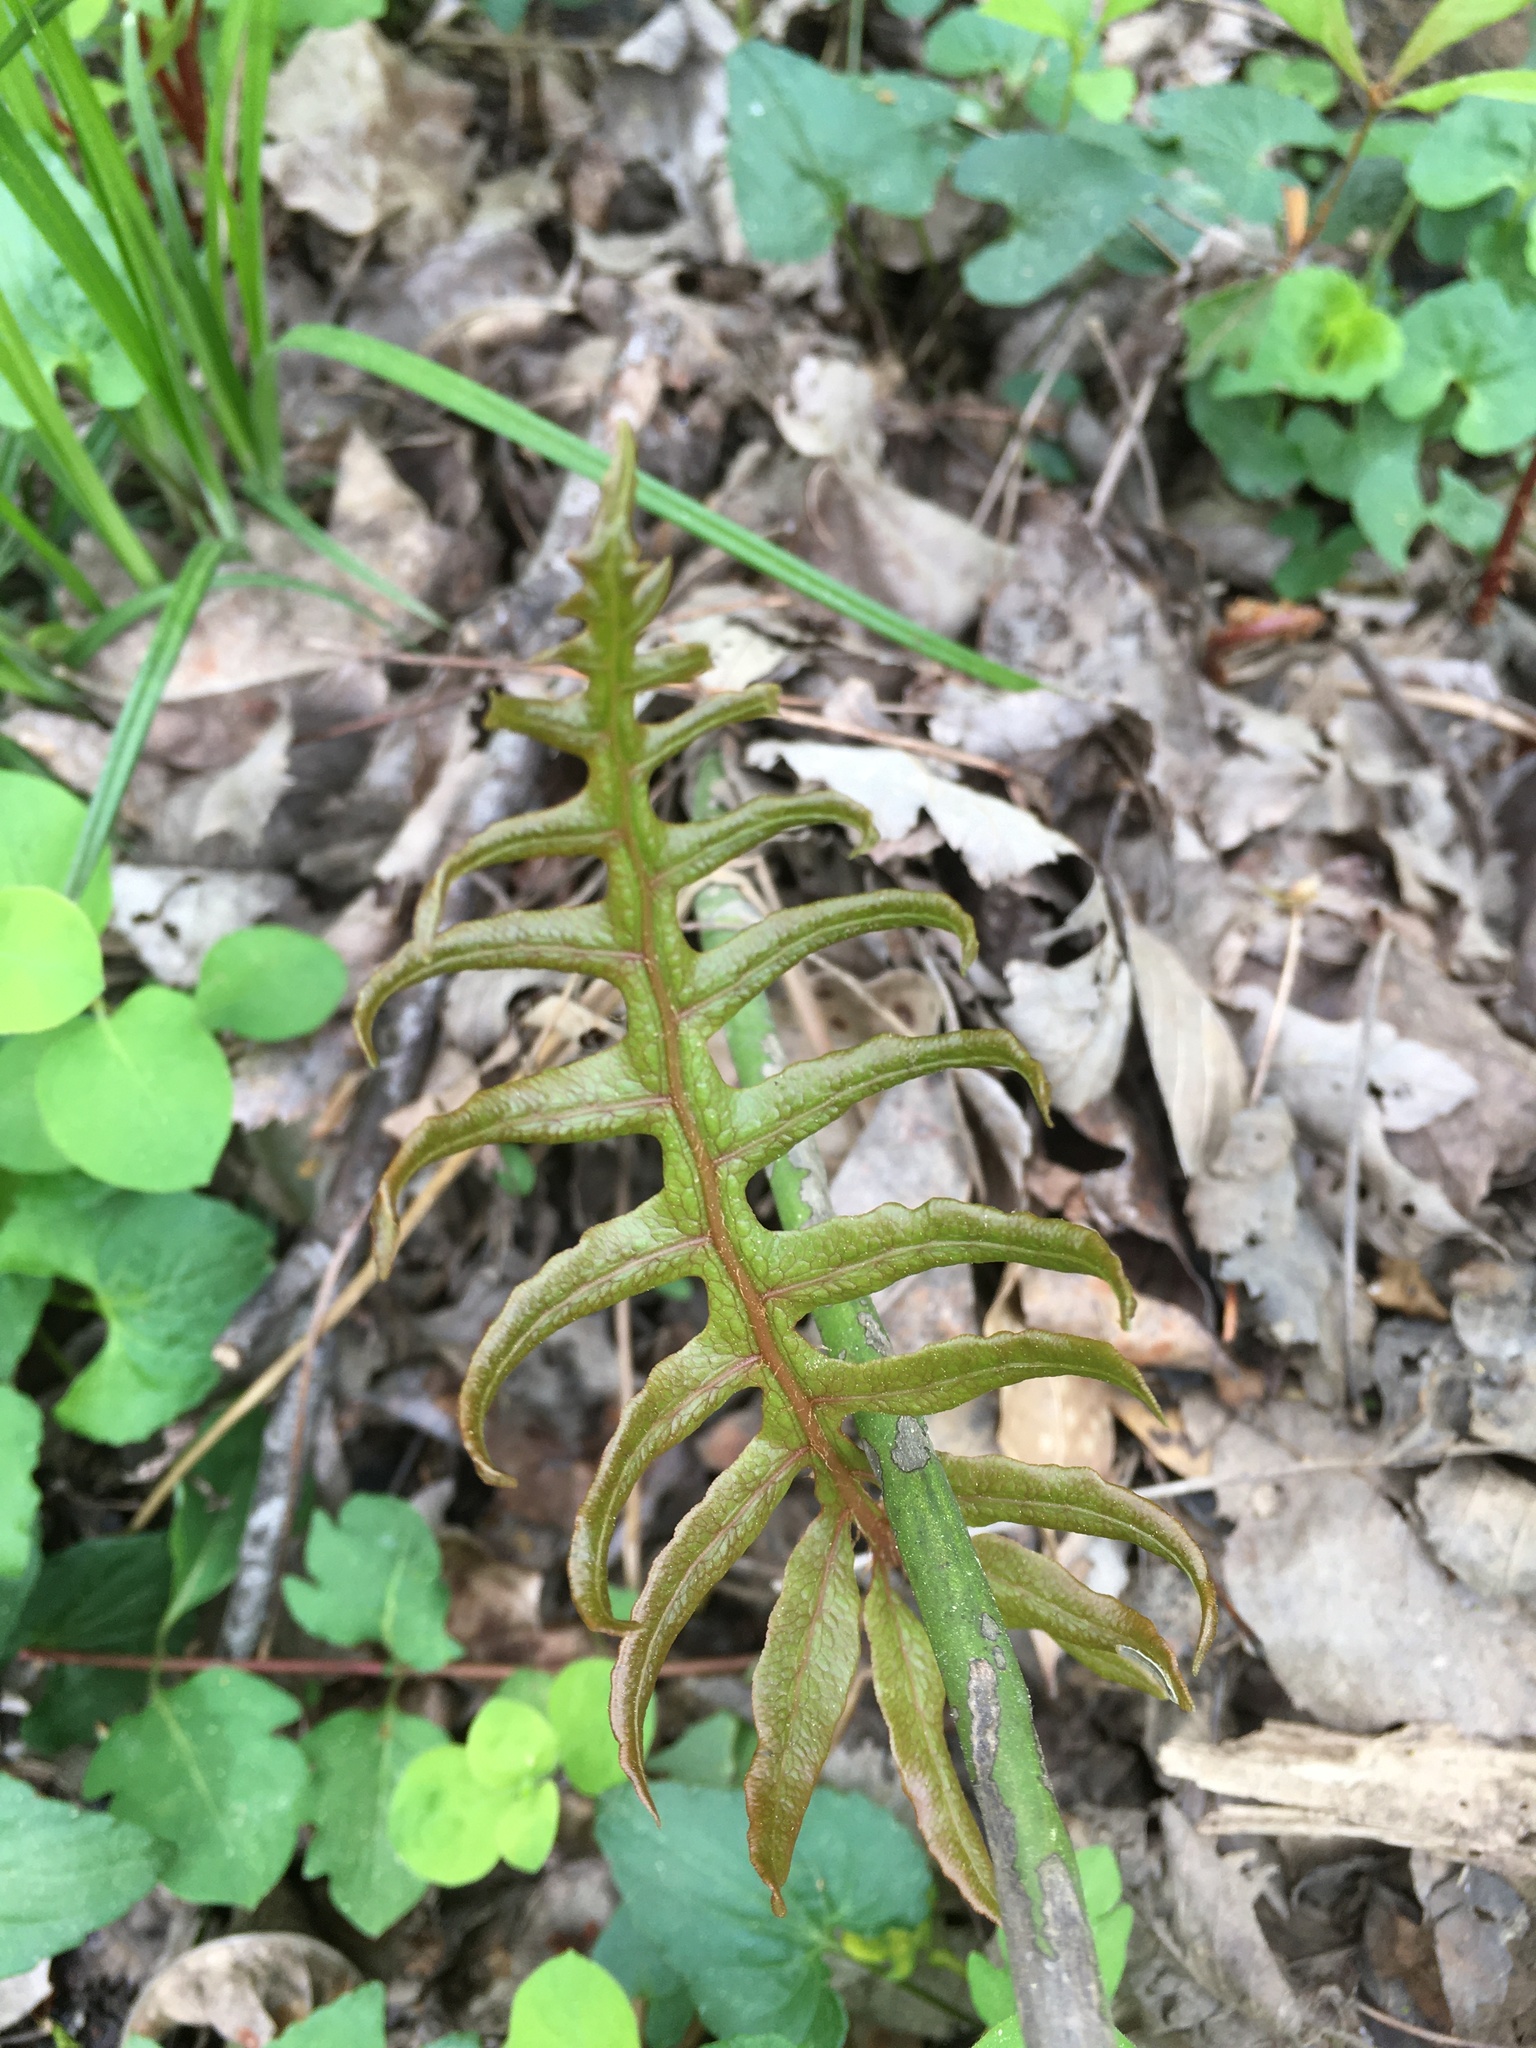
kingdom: Plantae
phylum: Tracheophyta
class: Polypodiopsida
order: Polypodiales
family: Blechnaceae
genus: Lorinseria
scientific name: Lorinseria areolata
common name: Dwarf chain fern
